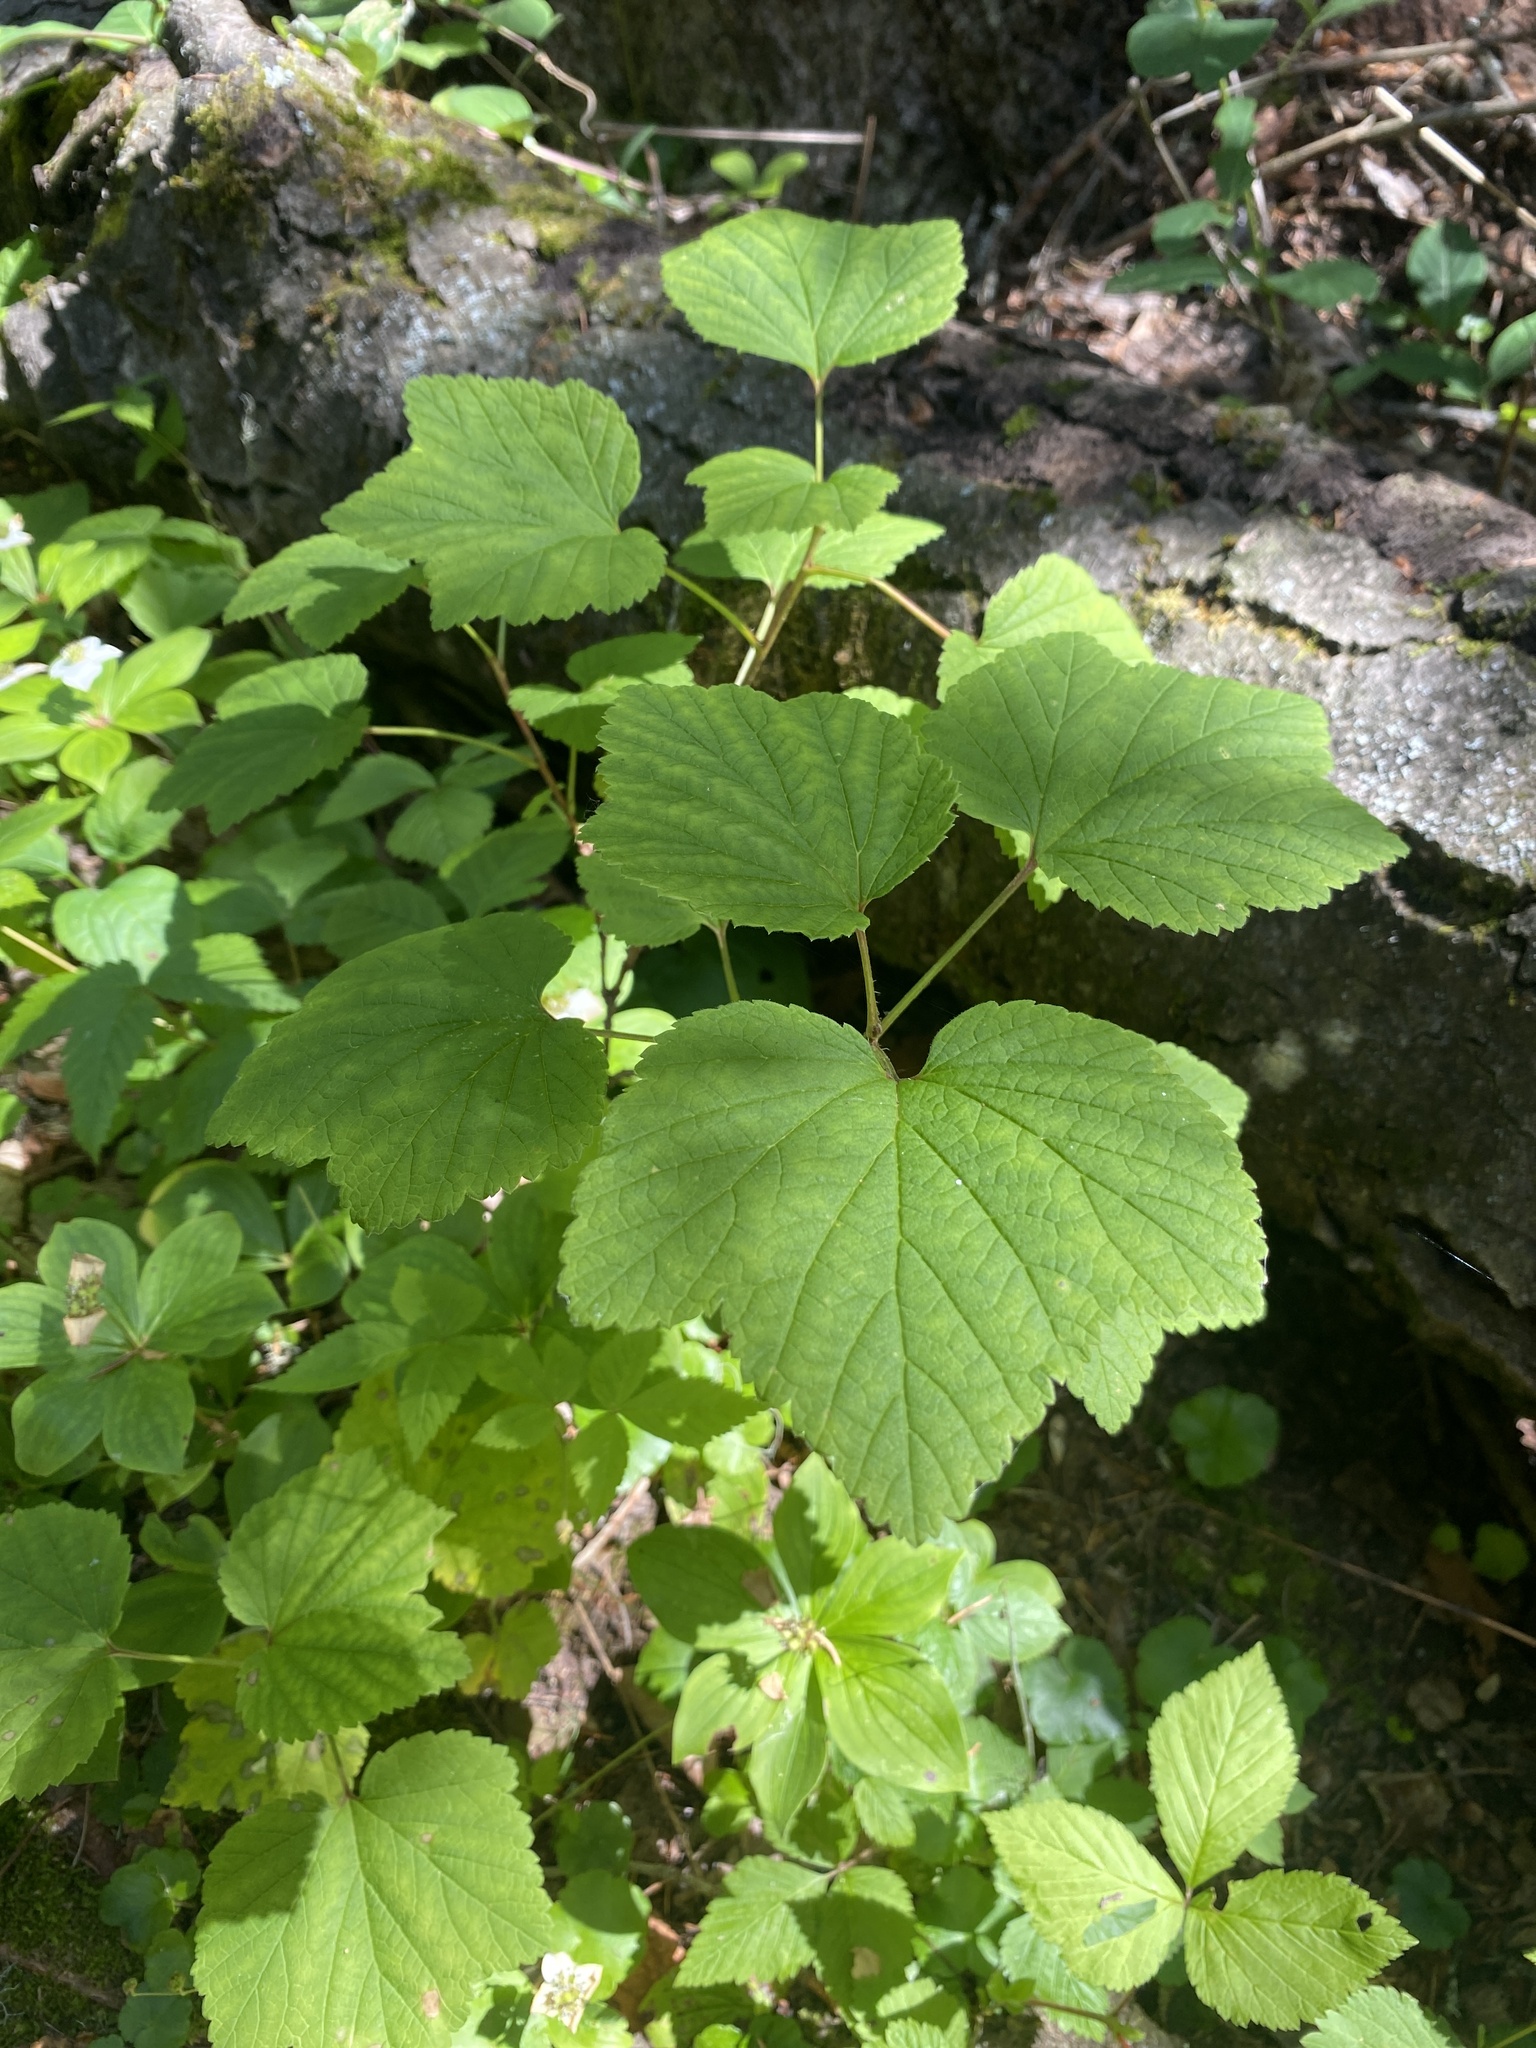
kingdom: Plantae
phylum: Tracheophyta
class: Magnoliopsida
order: Saxifragales
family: Grossulariaceae
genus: Ribes
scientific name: Ribes triste
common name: Swamp red currant
